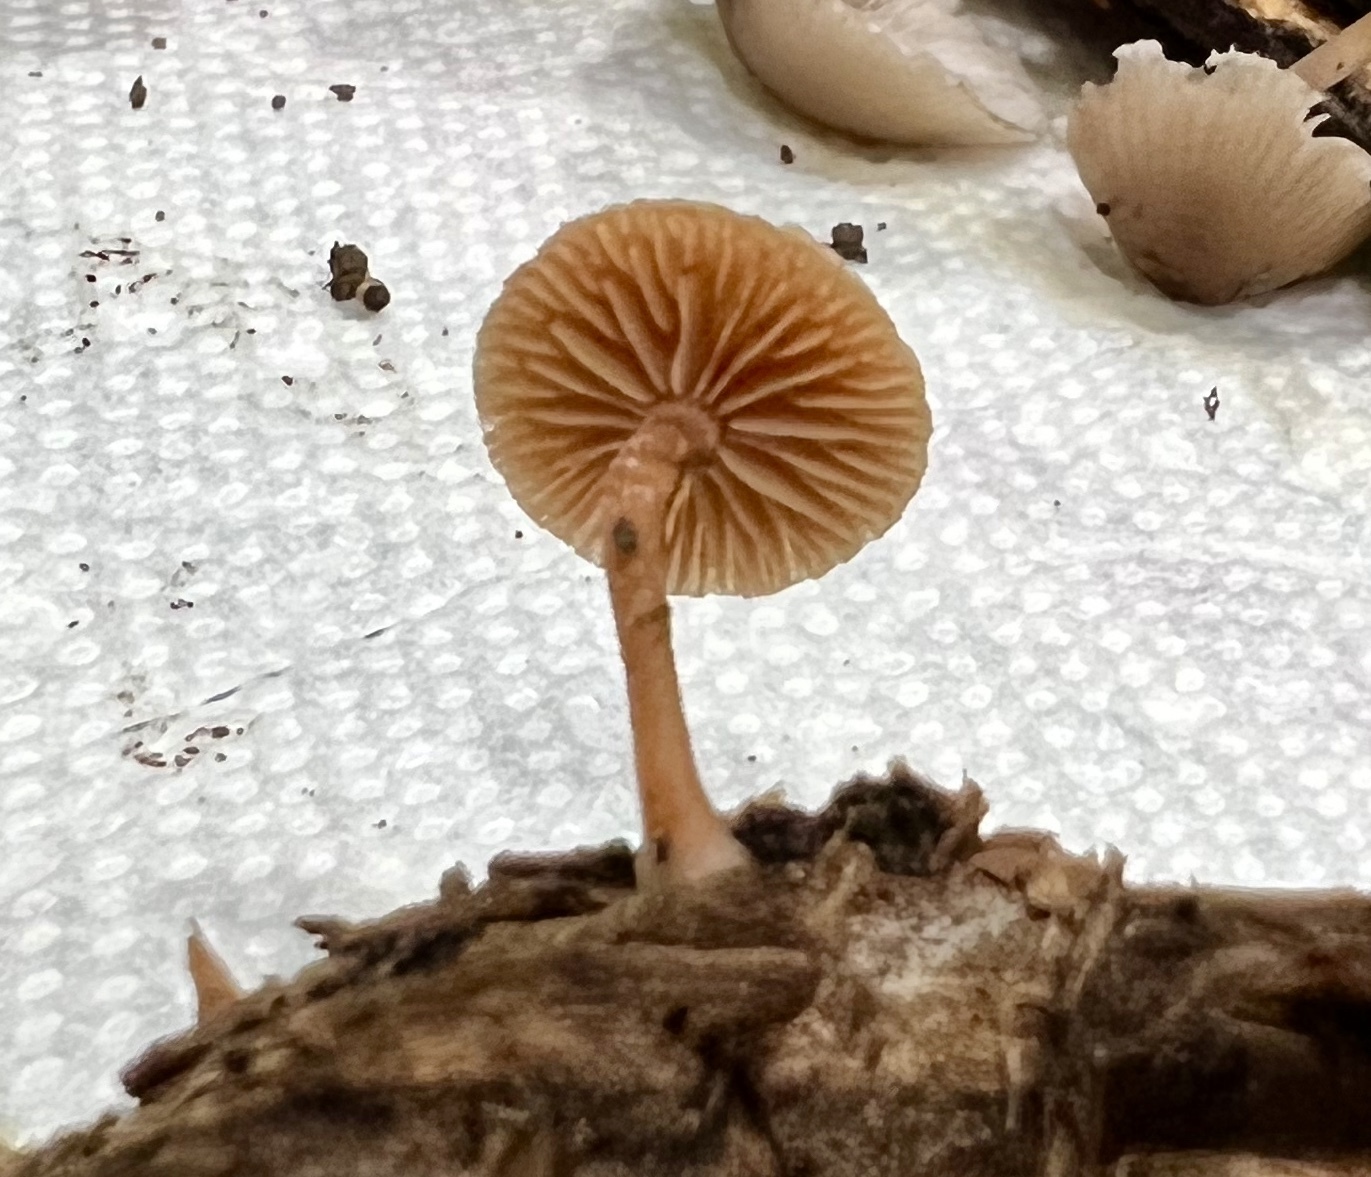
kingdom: Fungi
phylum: Basidiomycota
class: Agaricomycetes
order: Agaricales
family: Tubariaceae
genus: Tubaria
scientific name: Tubaria furfuracea
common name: Scurfy twiglet
